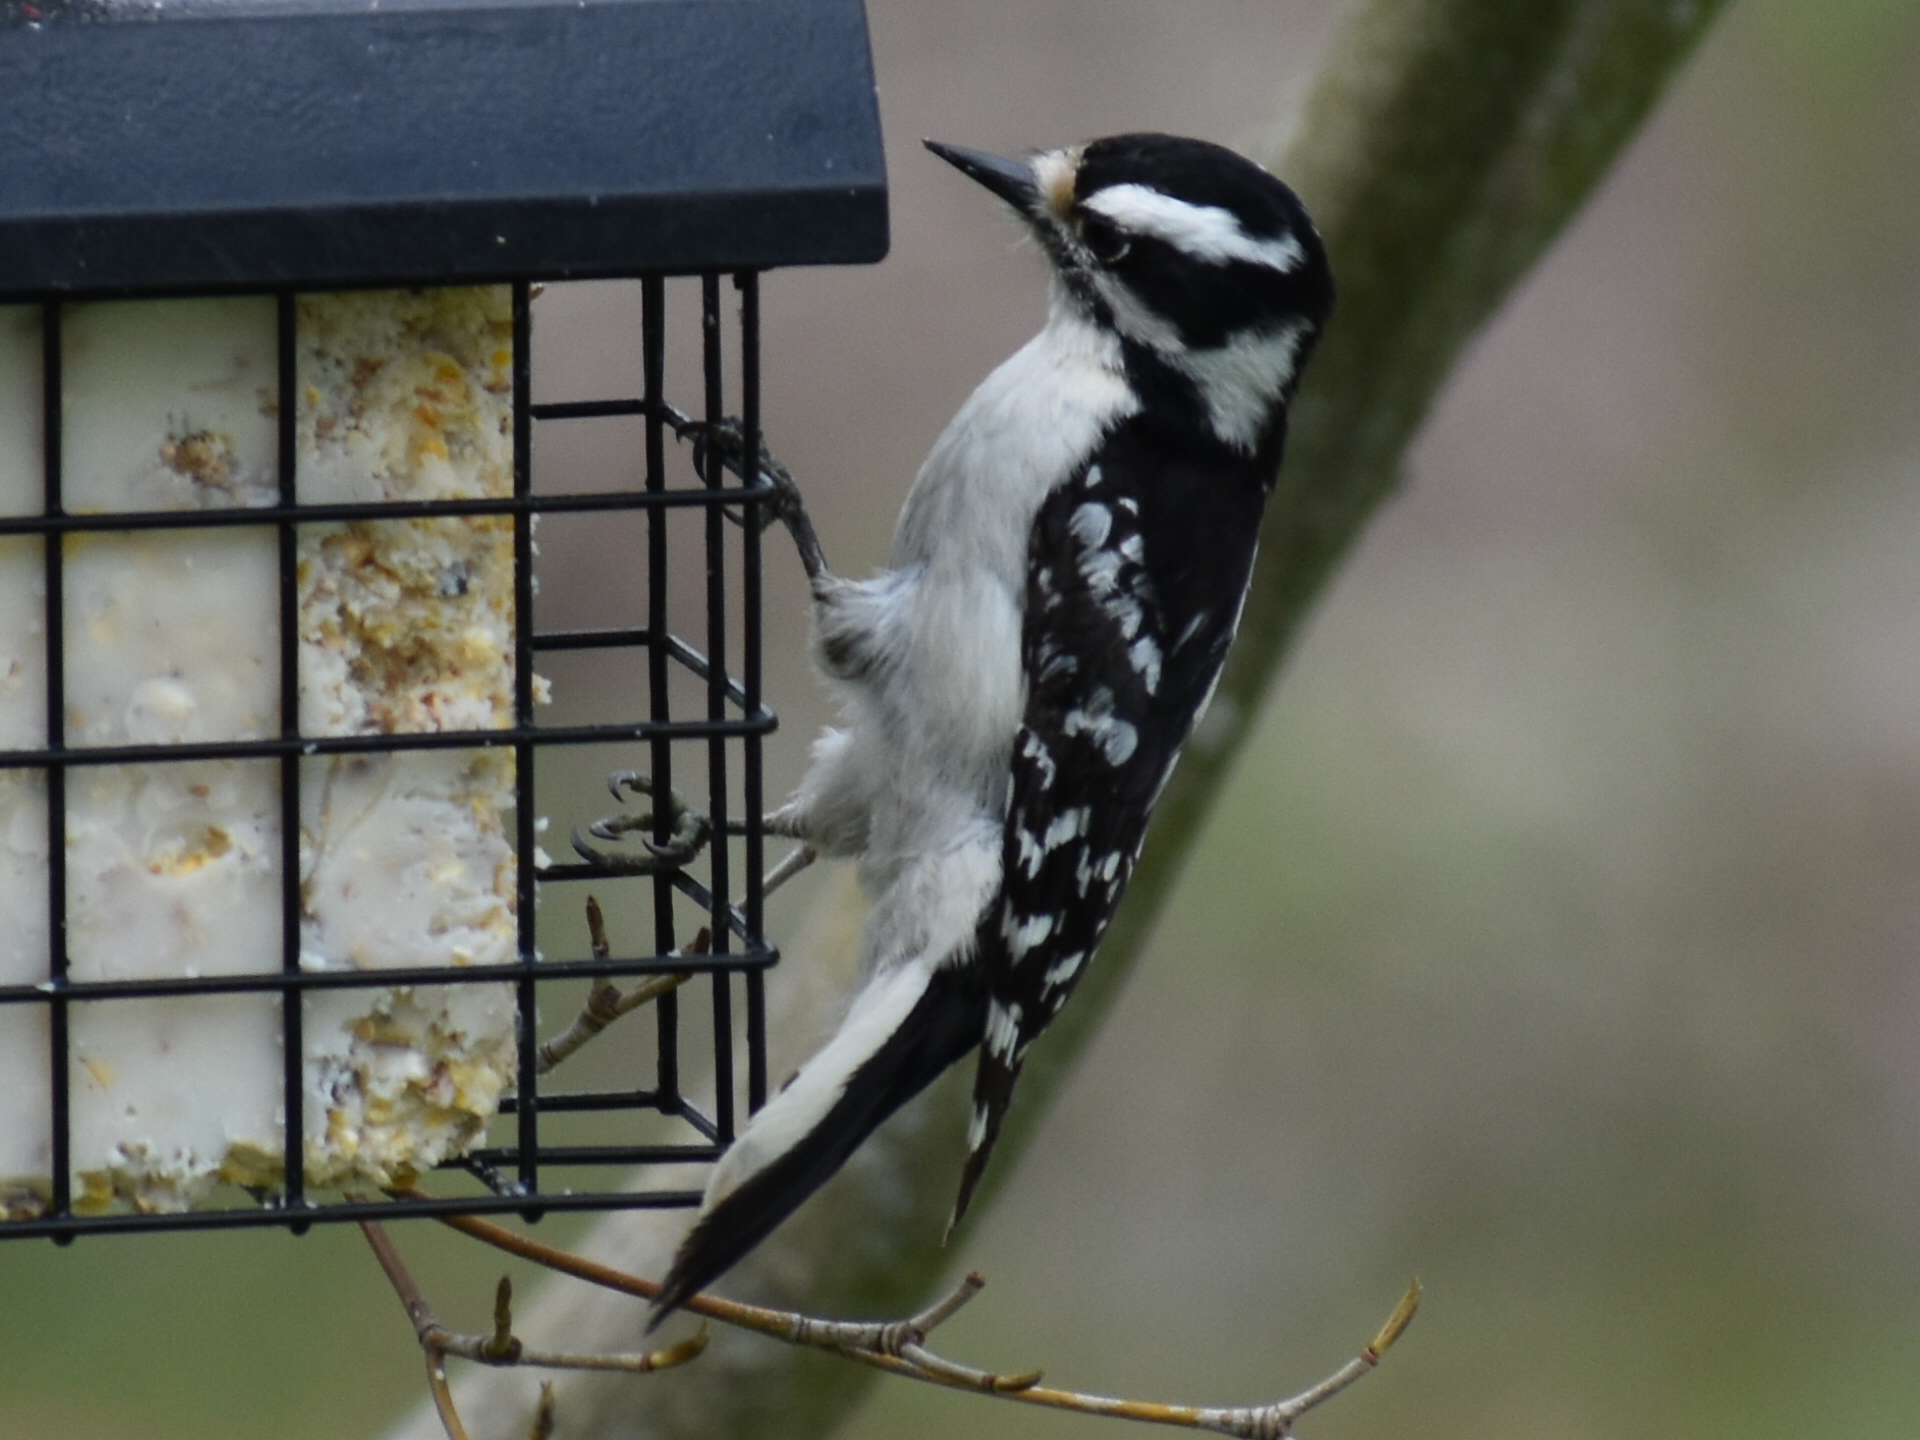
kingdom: Animalia
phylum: Chordata
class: Aves
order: Piciformes
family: Picidae
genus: Dryobates
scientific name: Dryobates pubescens
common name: Downy woodpecker
